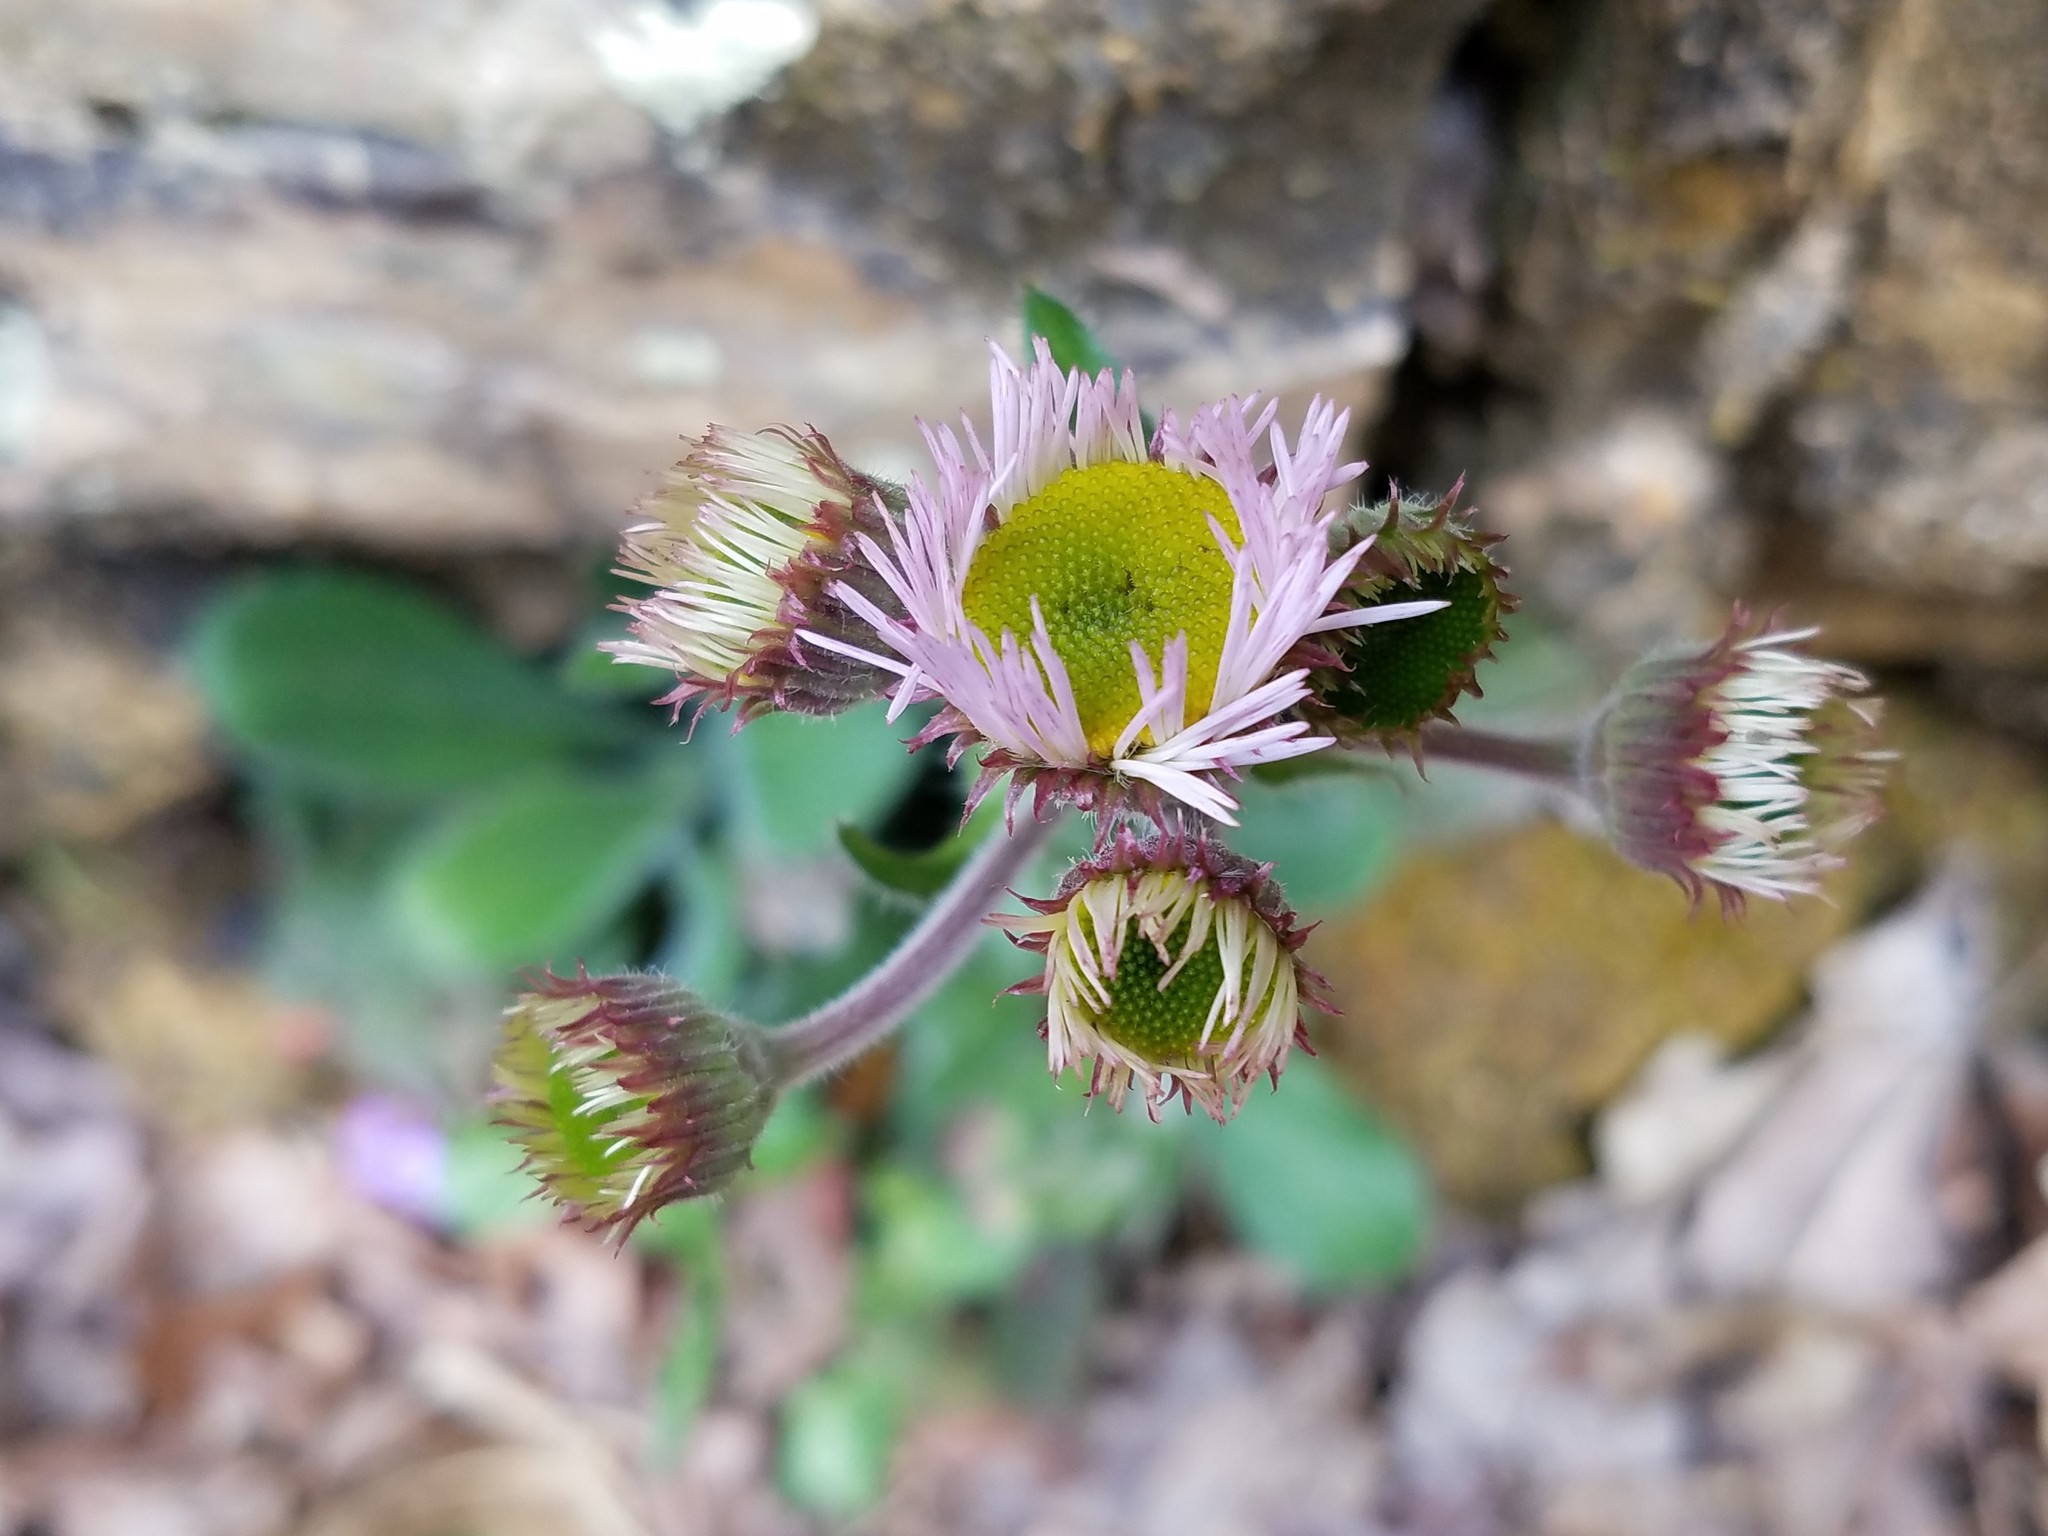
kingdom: Plantae
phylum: Tracheophyta
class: Magnoliopsida
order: Asterales
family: Asteraceae
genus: Erigeron
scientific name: Erigeron pulchellus
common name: Hairy fleabane
